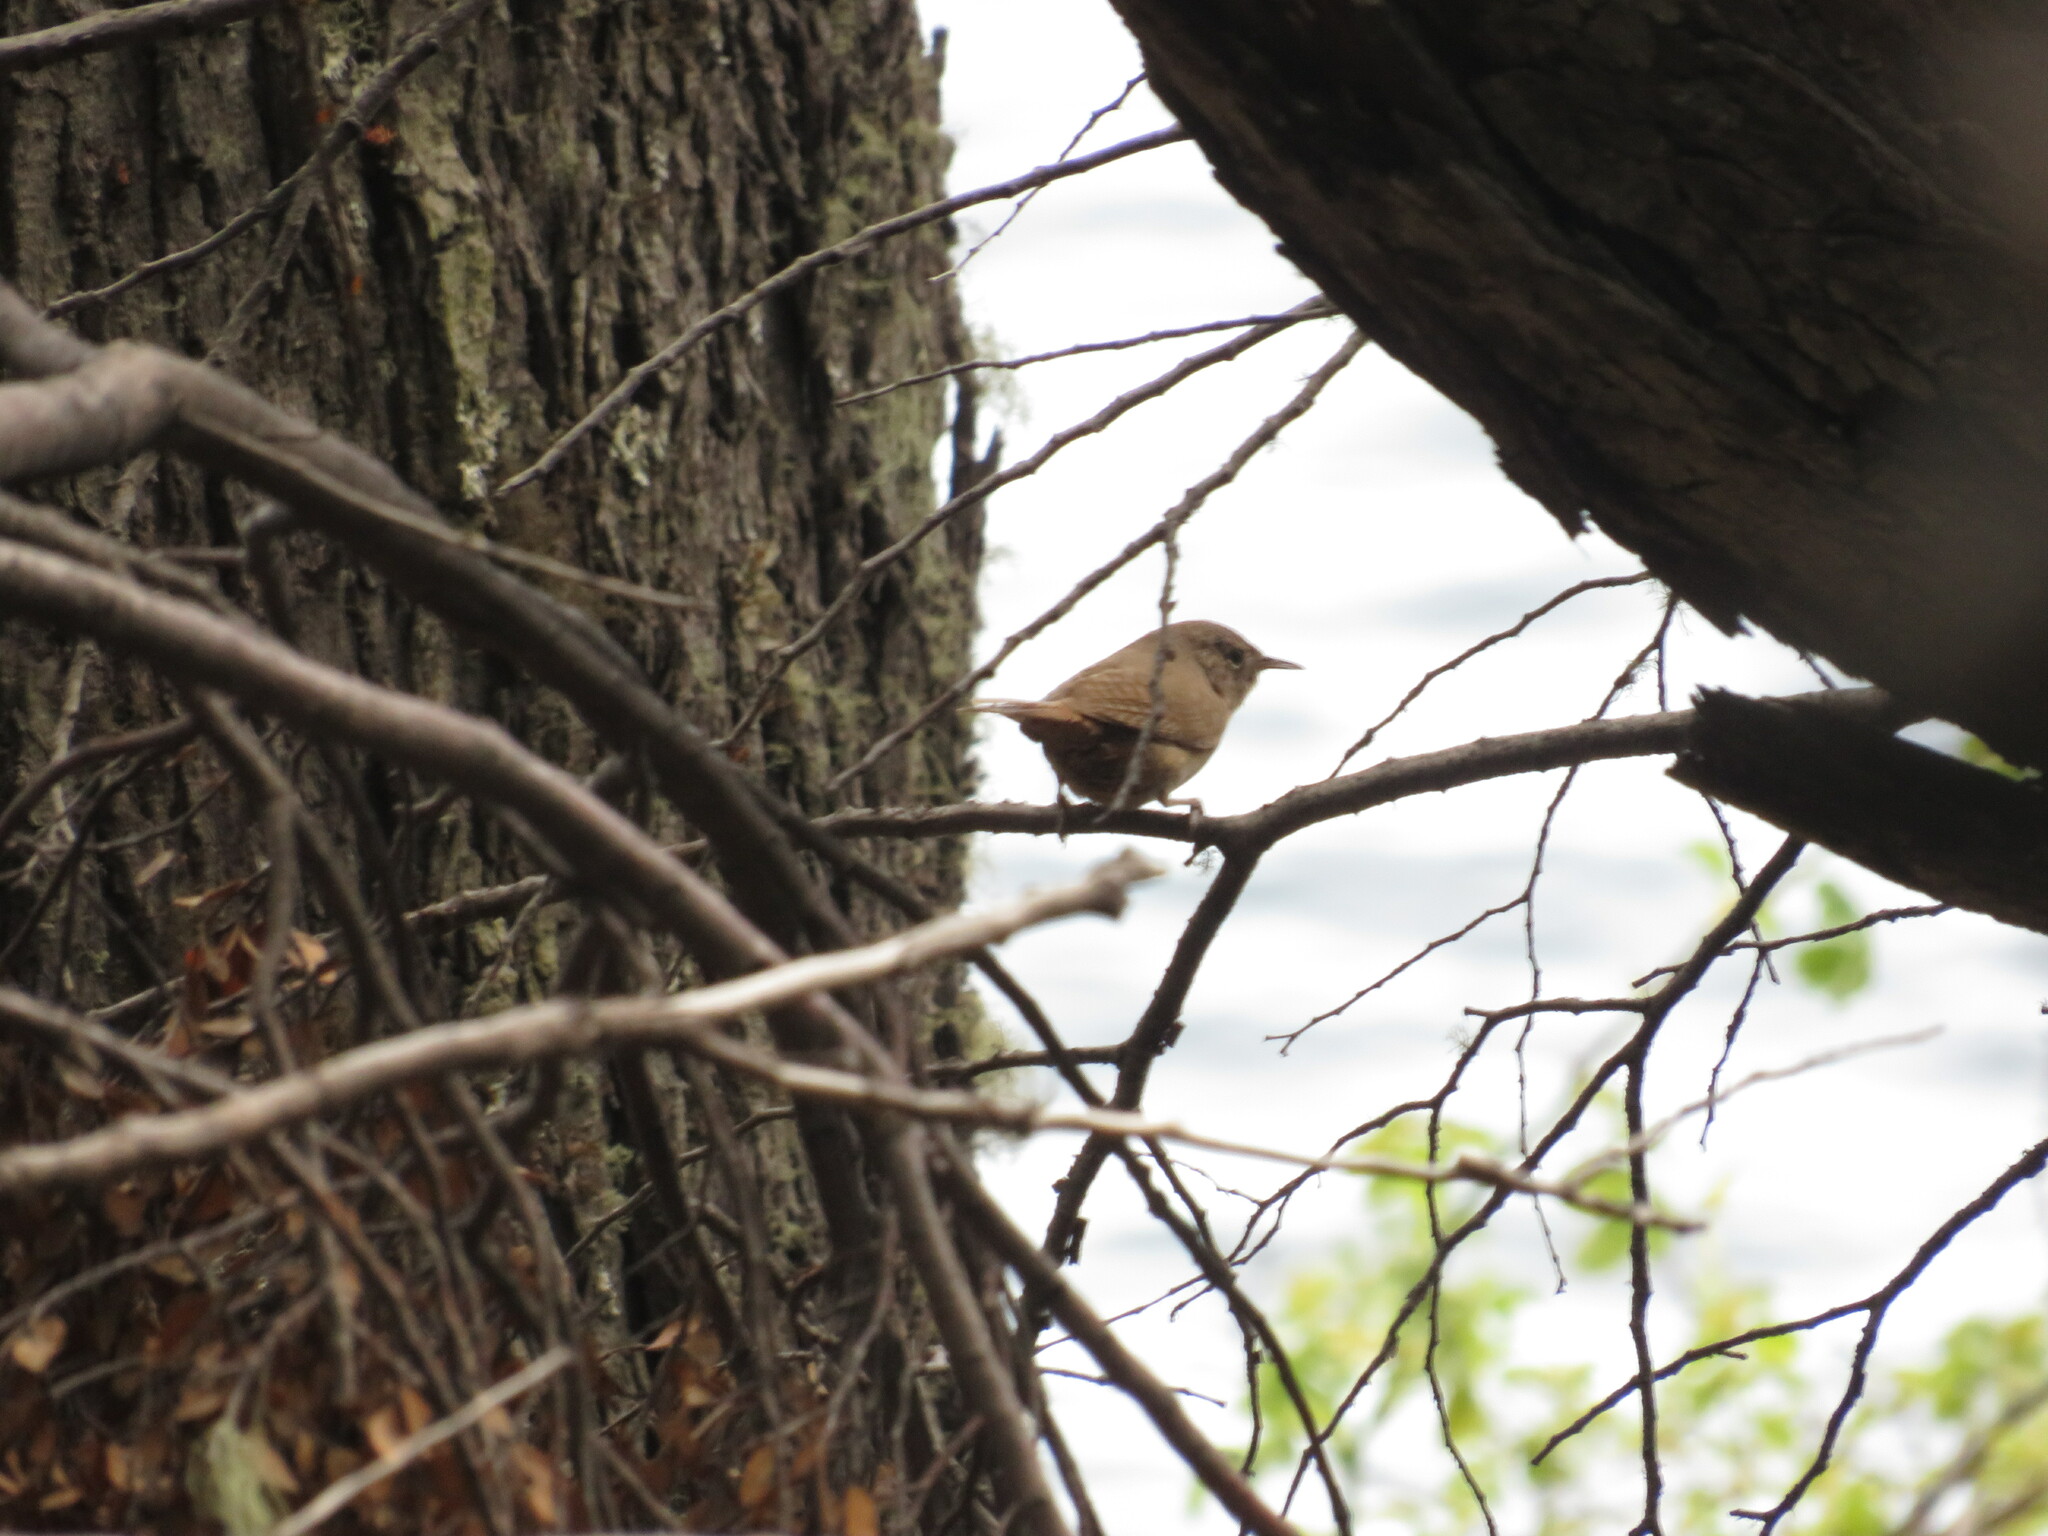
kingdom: Animalia
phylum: Chordata
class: Aves
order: Passeriformes
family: Troglodytidae
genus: Troglodytes
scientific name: Troglodytes aedon
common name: House wren
